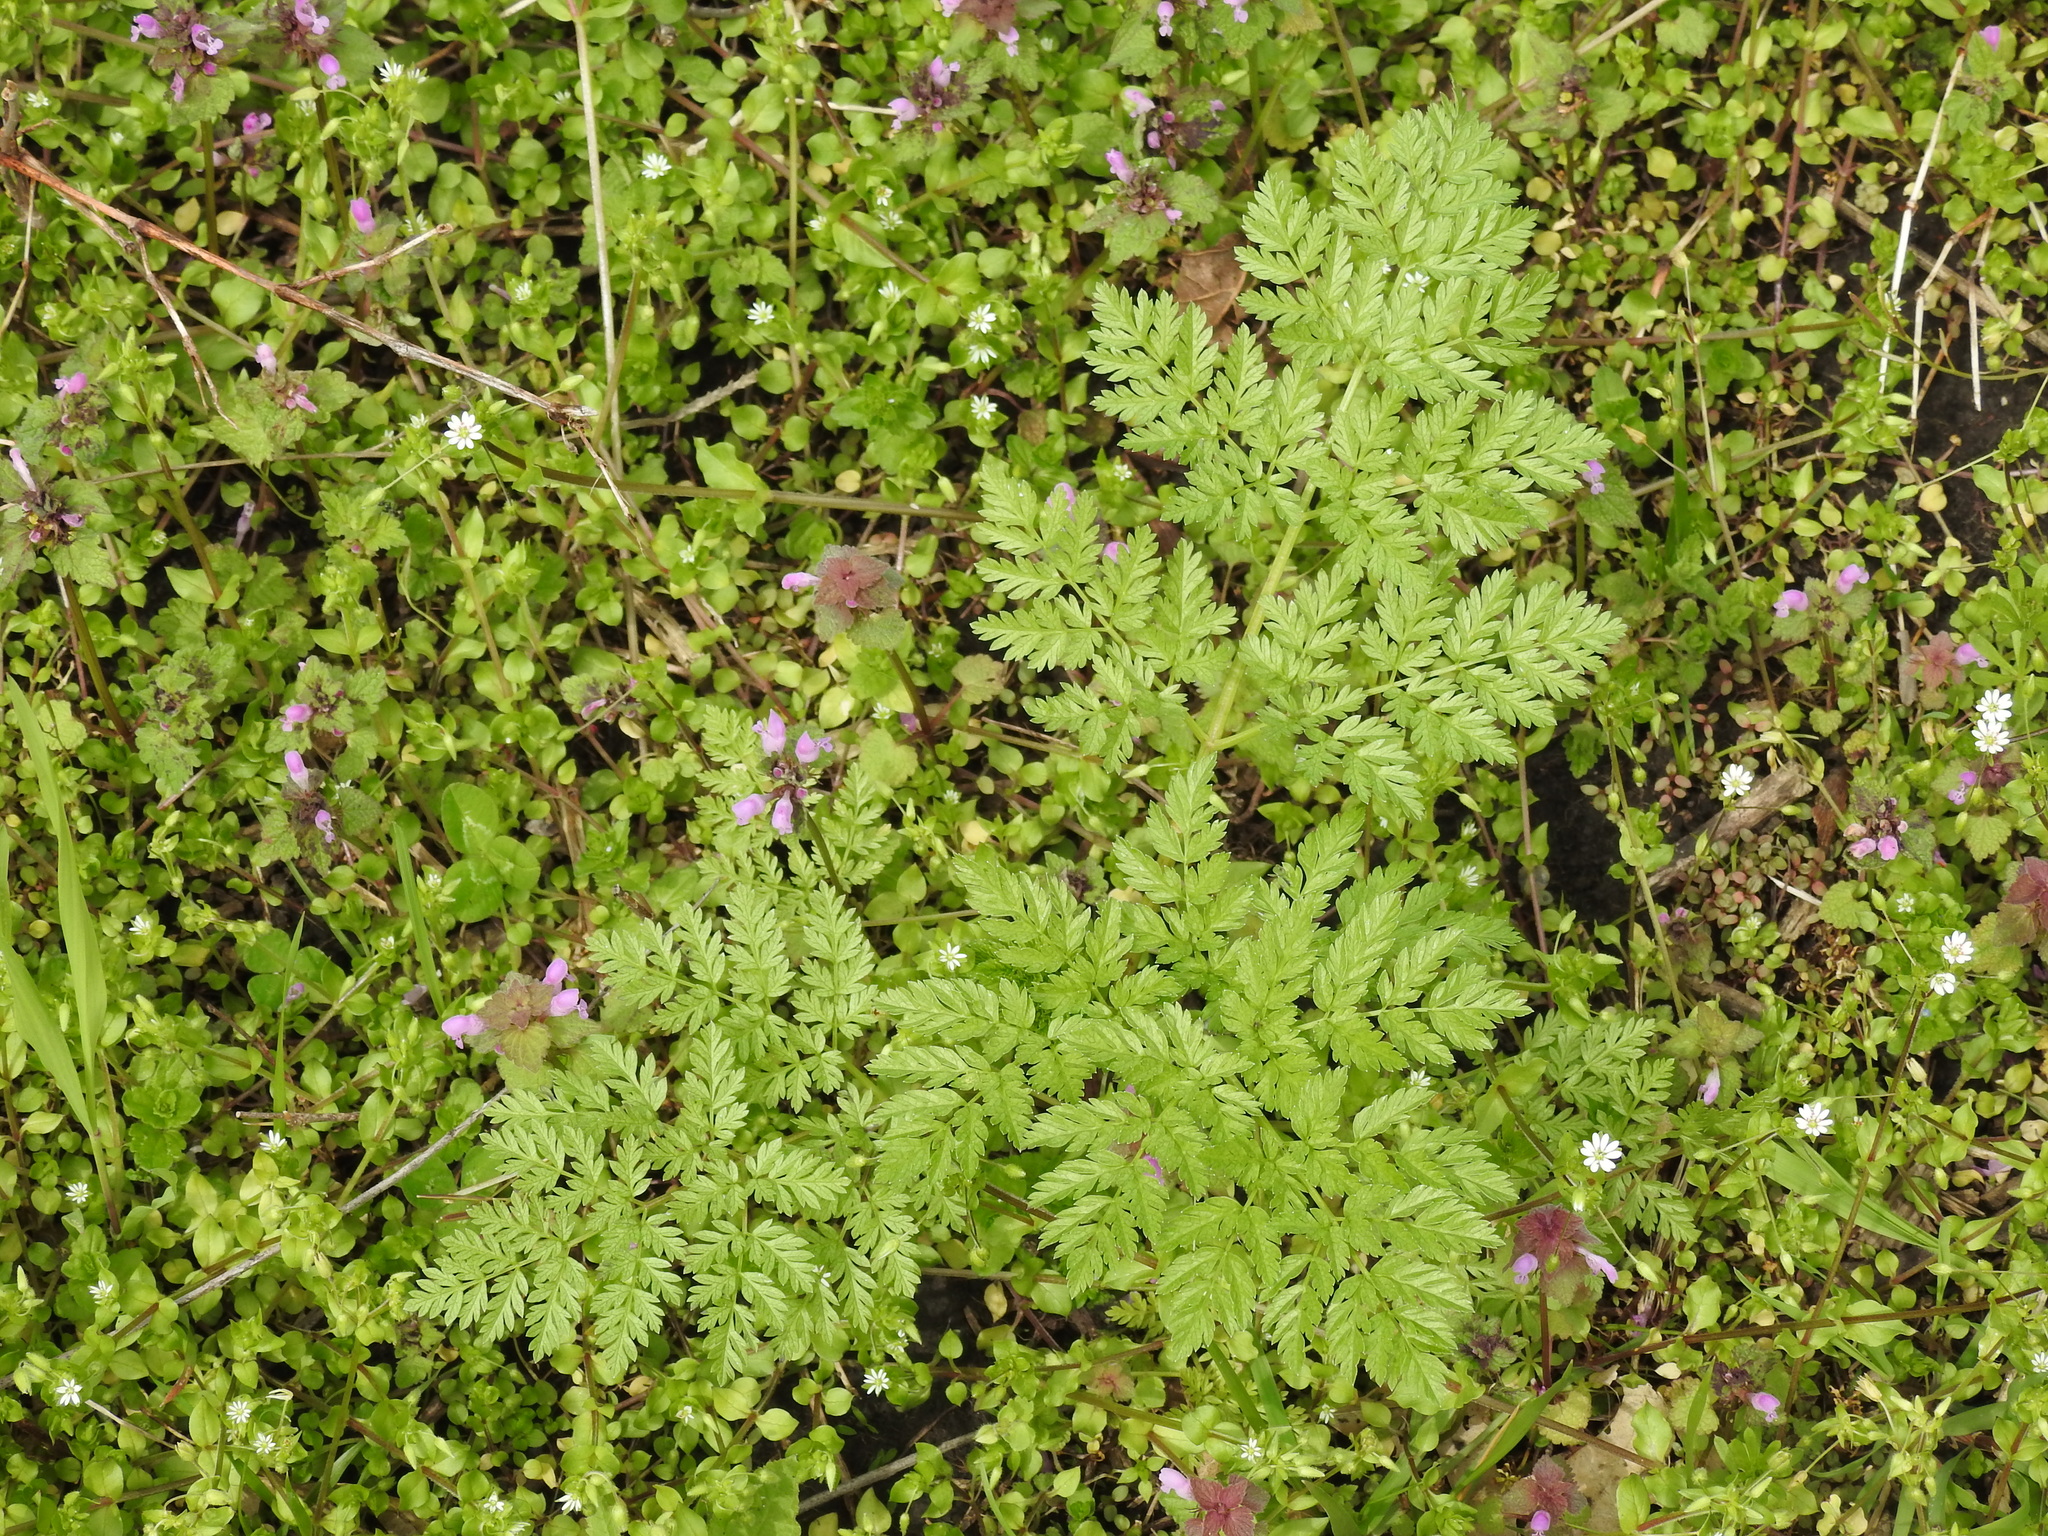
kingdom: Plantae
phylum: Tracheophyta
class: Magnoliopsida
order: Apiales
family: Apiaceae
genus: Conium
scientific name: Conium maculatum
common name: Hemlock
